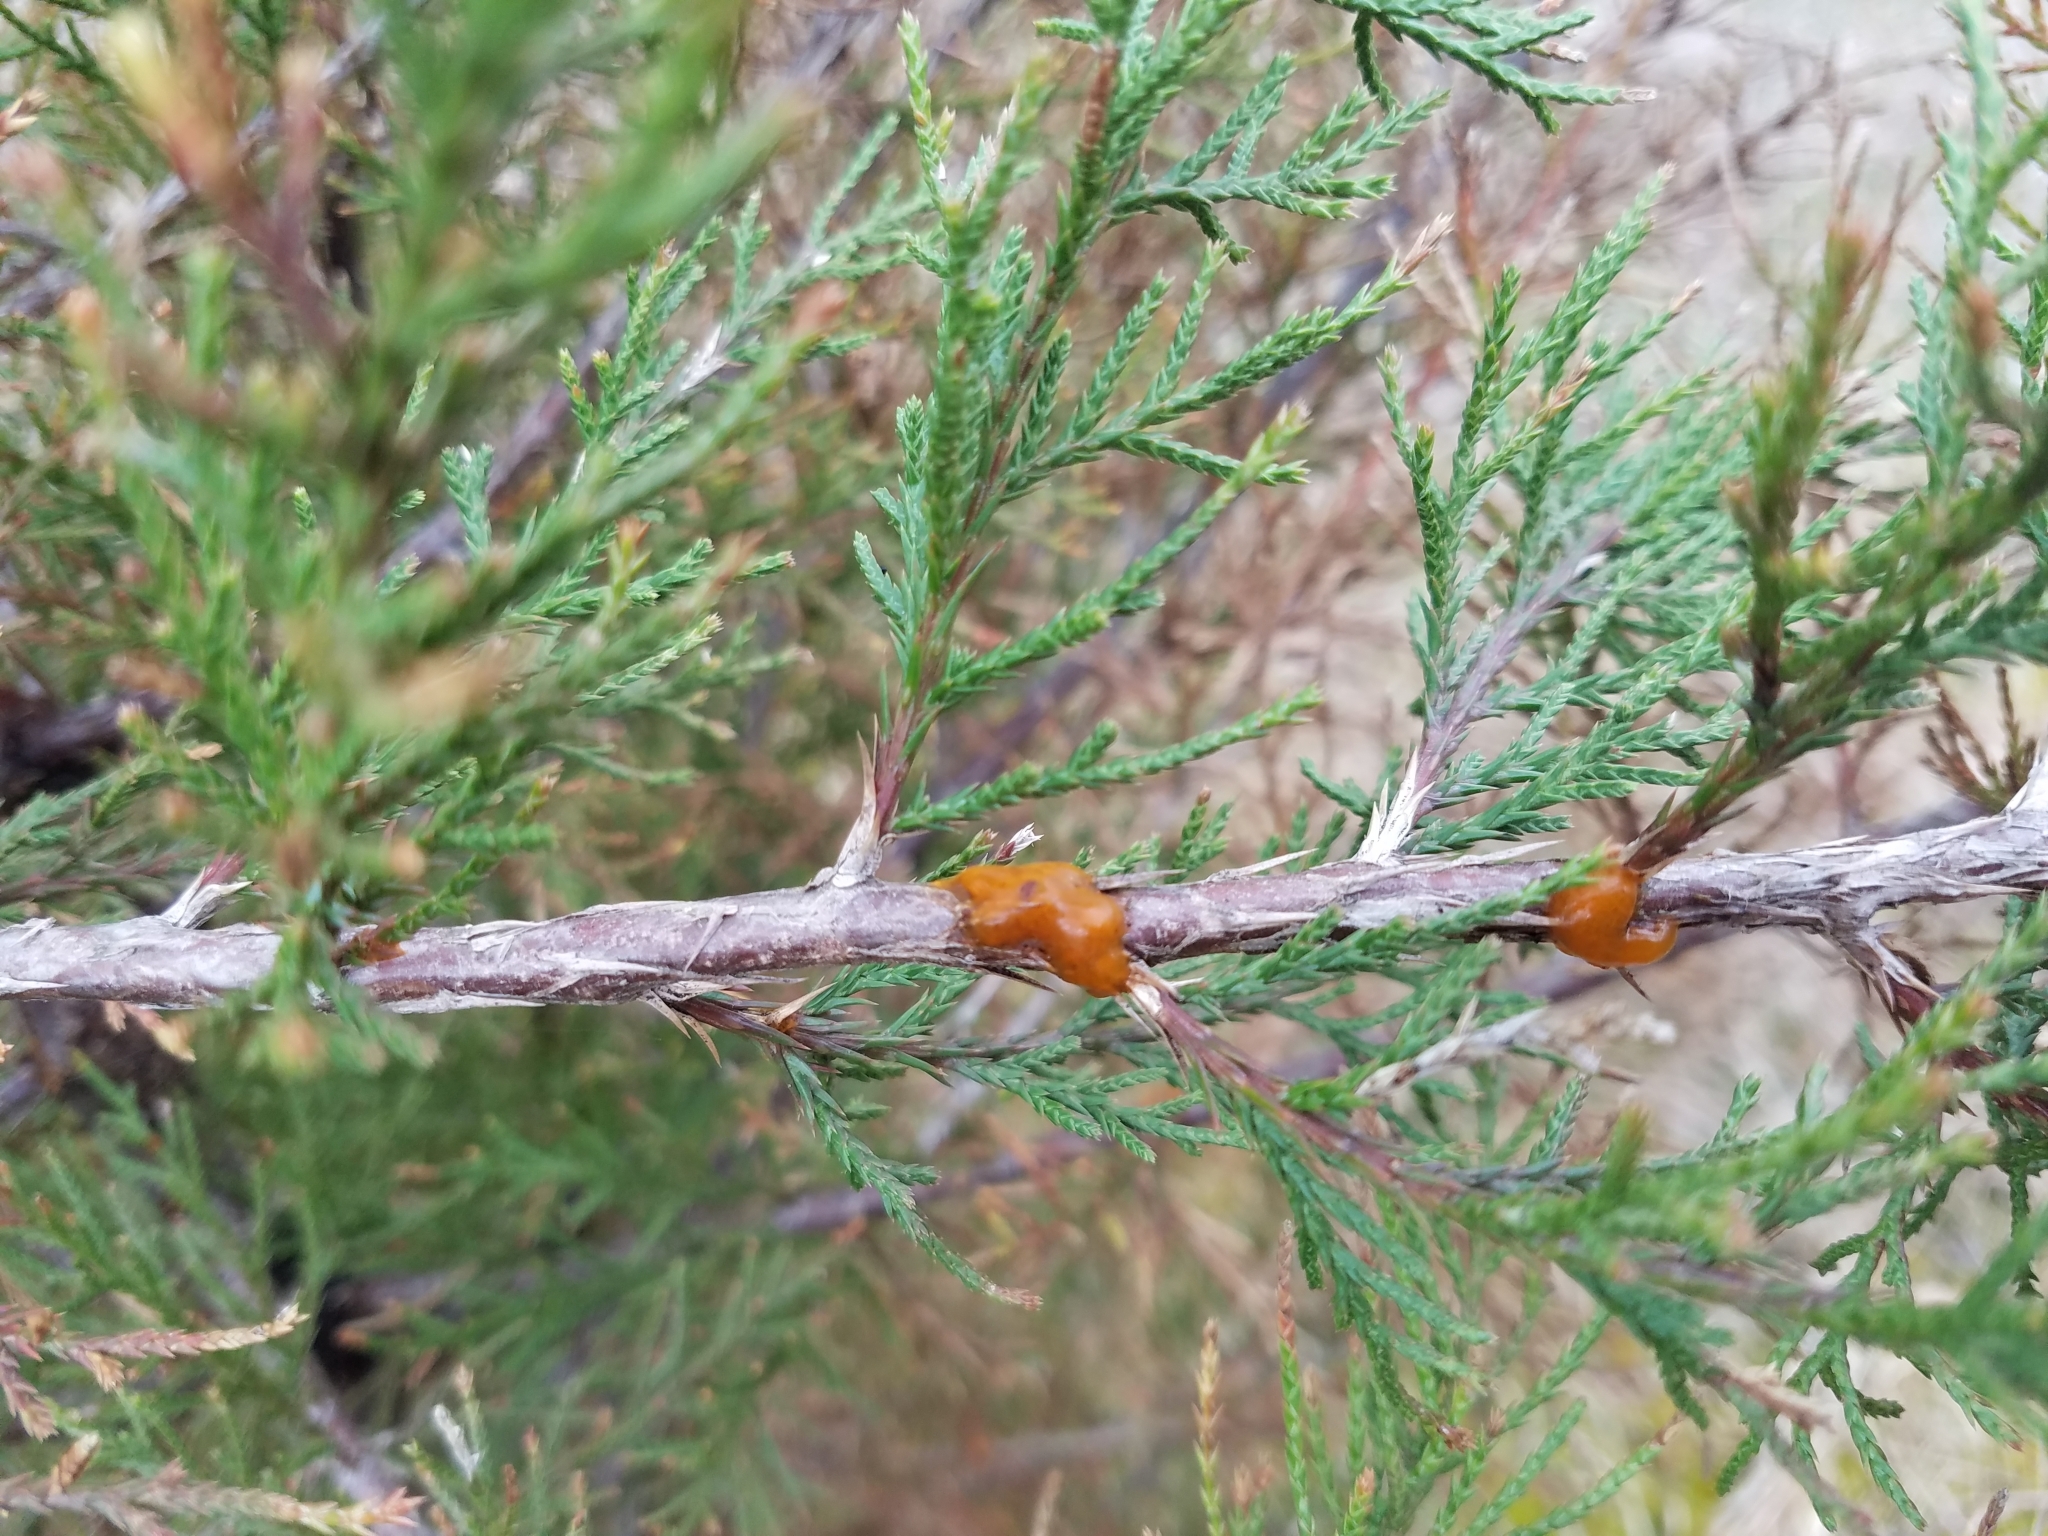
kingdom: Fungi
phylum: Basidiomycota
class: Pucciniomycetes
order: Pucciniales
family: Gymnosporangiaceae
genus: Gymnosporangium
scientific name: Gymnosporangium clavipes
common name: Quince rust
